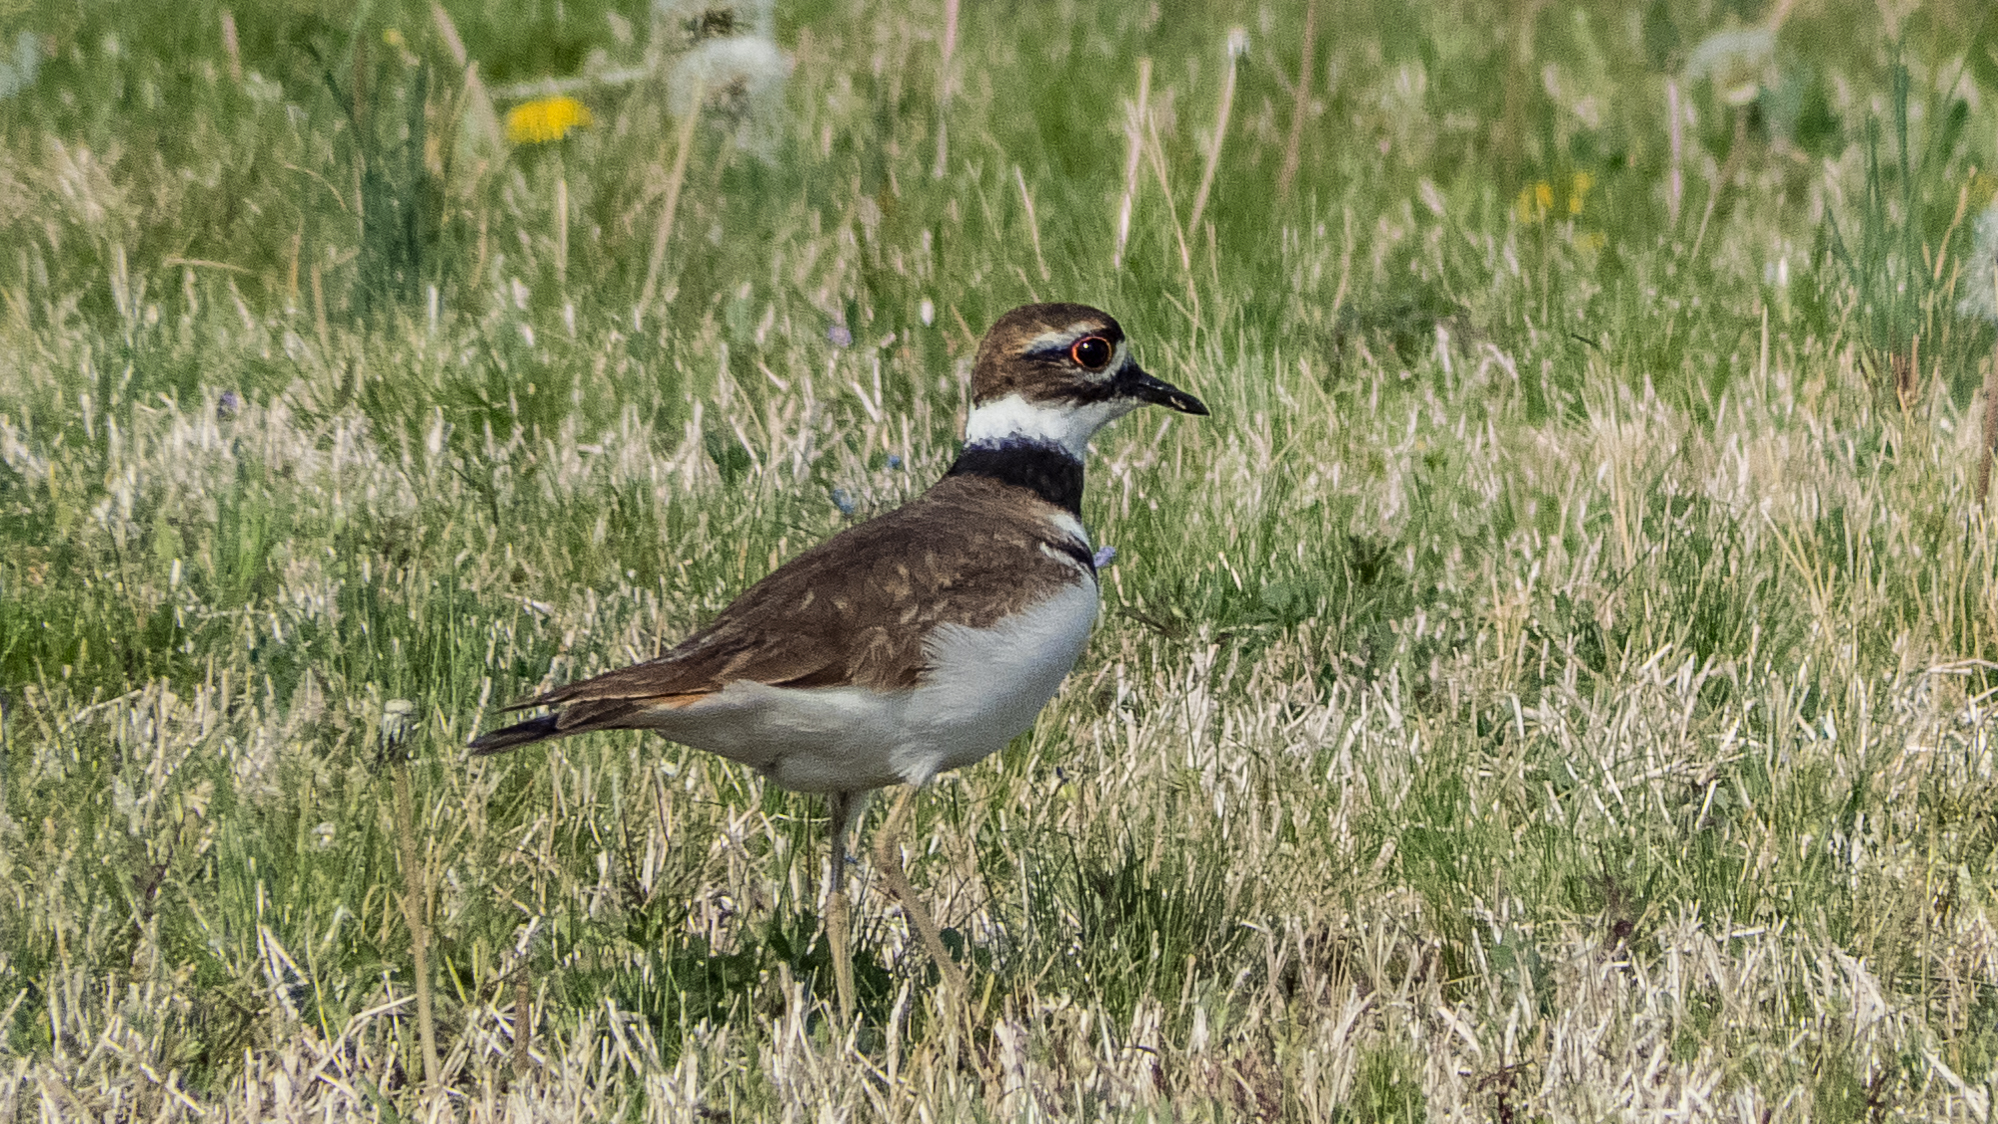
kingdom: Animalia
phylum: Chordata
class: Aves
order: Charadriiformes
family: Charadriidae
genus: Charadrius
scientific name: Charadrius vociferus
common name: Killdeer
